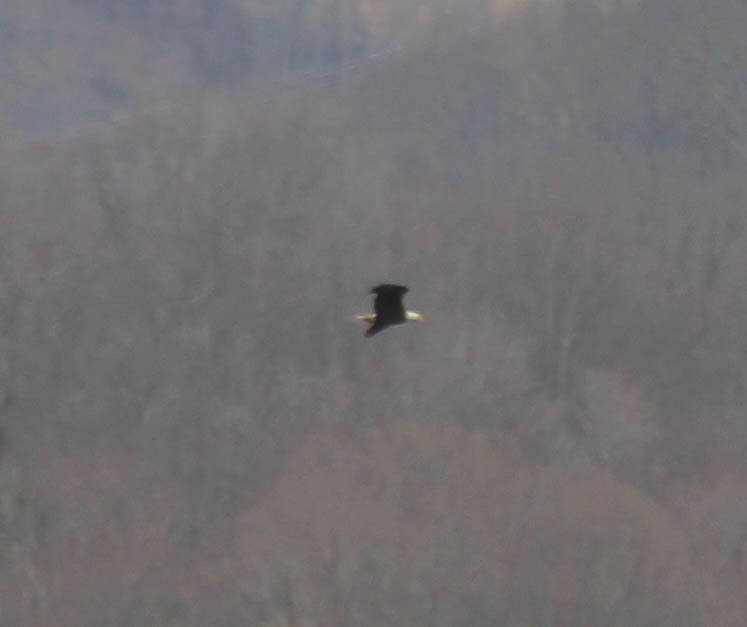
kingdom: Animalia
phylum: Chordata
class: Aves
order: Accipitriformes
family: Accipitridae
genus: Haliaeetus
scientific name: Haliaeetus leucocephalus
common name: Bald eagle
